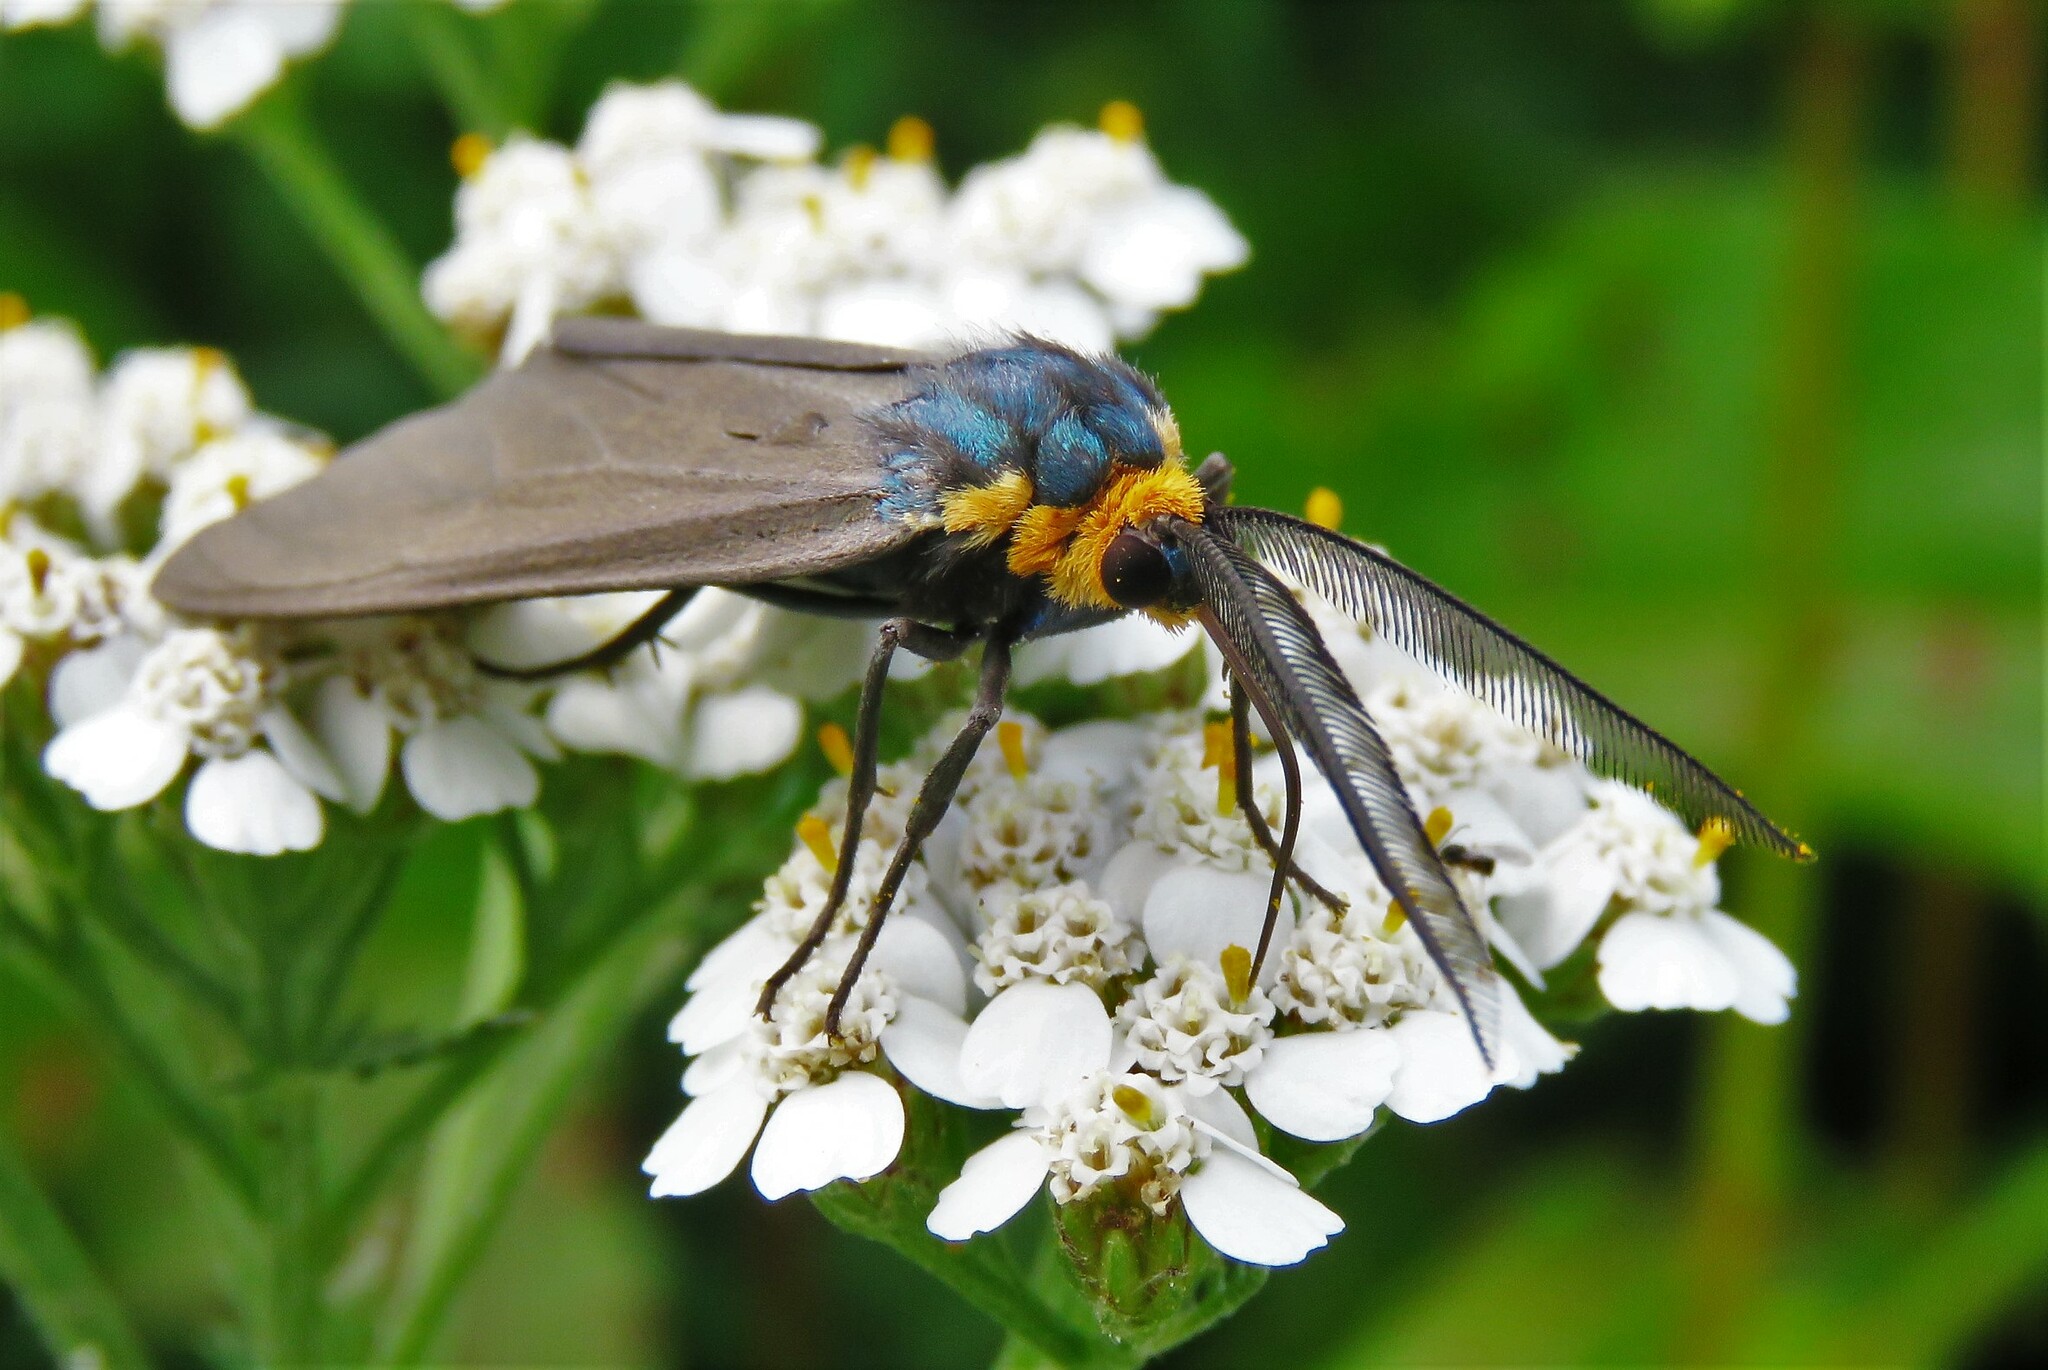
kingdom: Animalia
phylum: Arthropoda
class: Insecta
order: Lepidoptera
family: Erebidae
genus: Ctenucha
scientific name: Ctenucha virginica
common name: Virginia ctenucha moth
